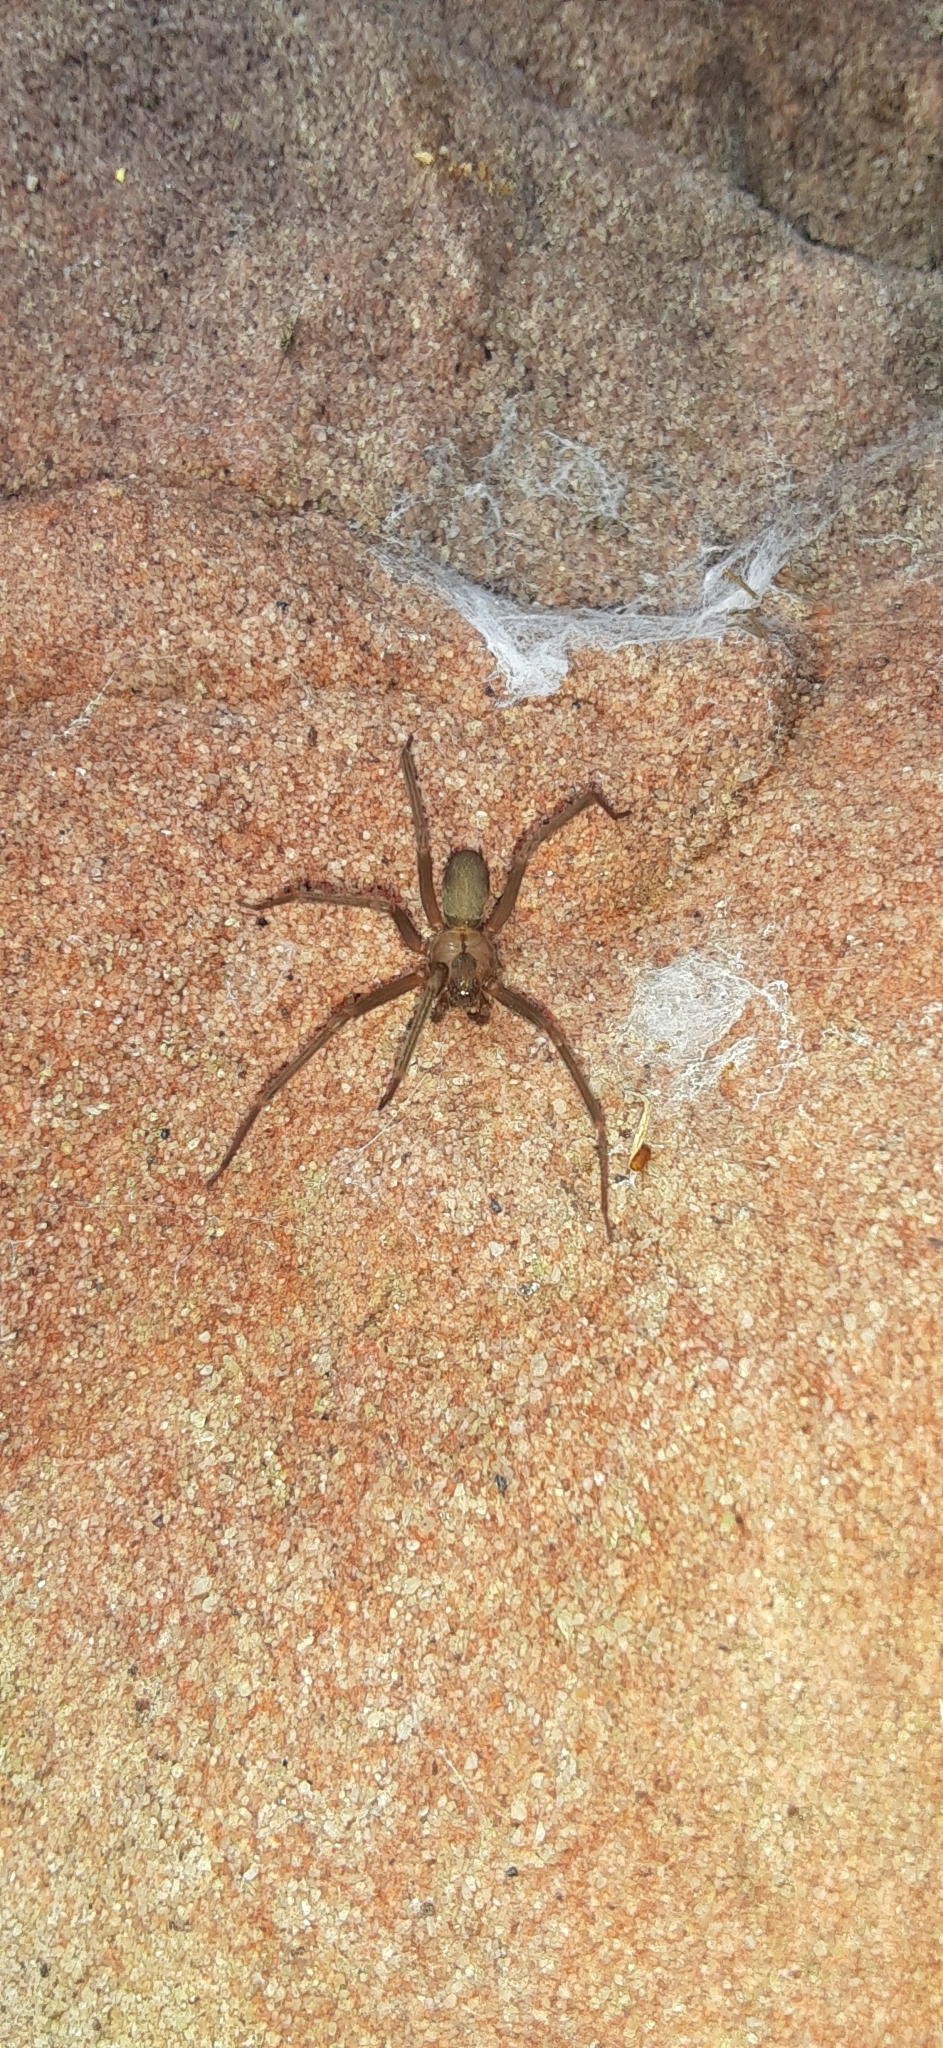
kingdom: Animalia
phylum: Arthropoda
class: Arachnida
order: Araneae
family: Sicariidae
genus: Loxosceles
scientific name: Loxosceles reclusa
